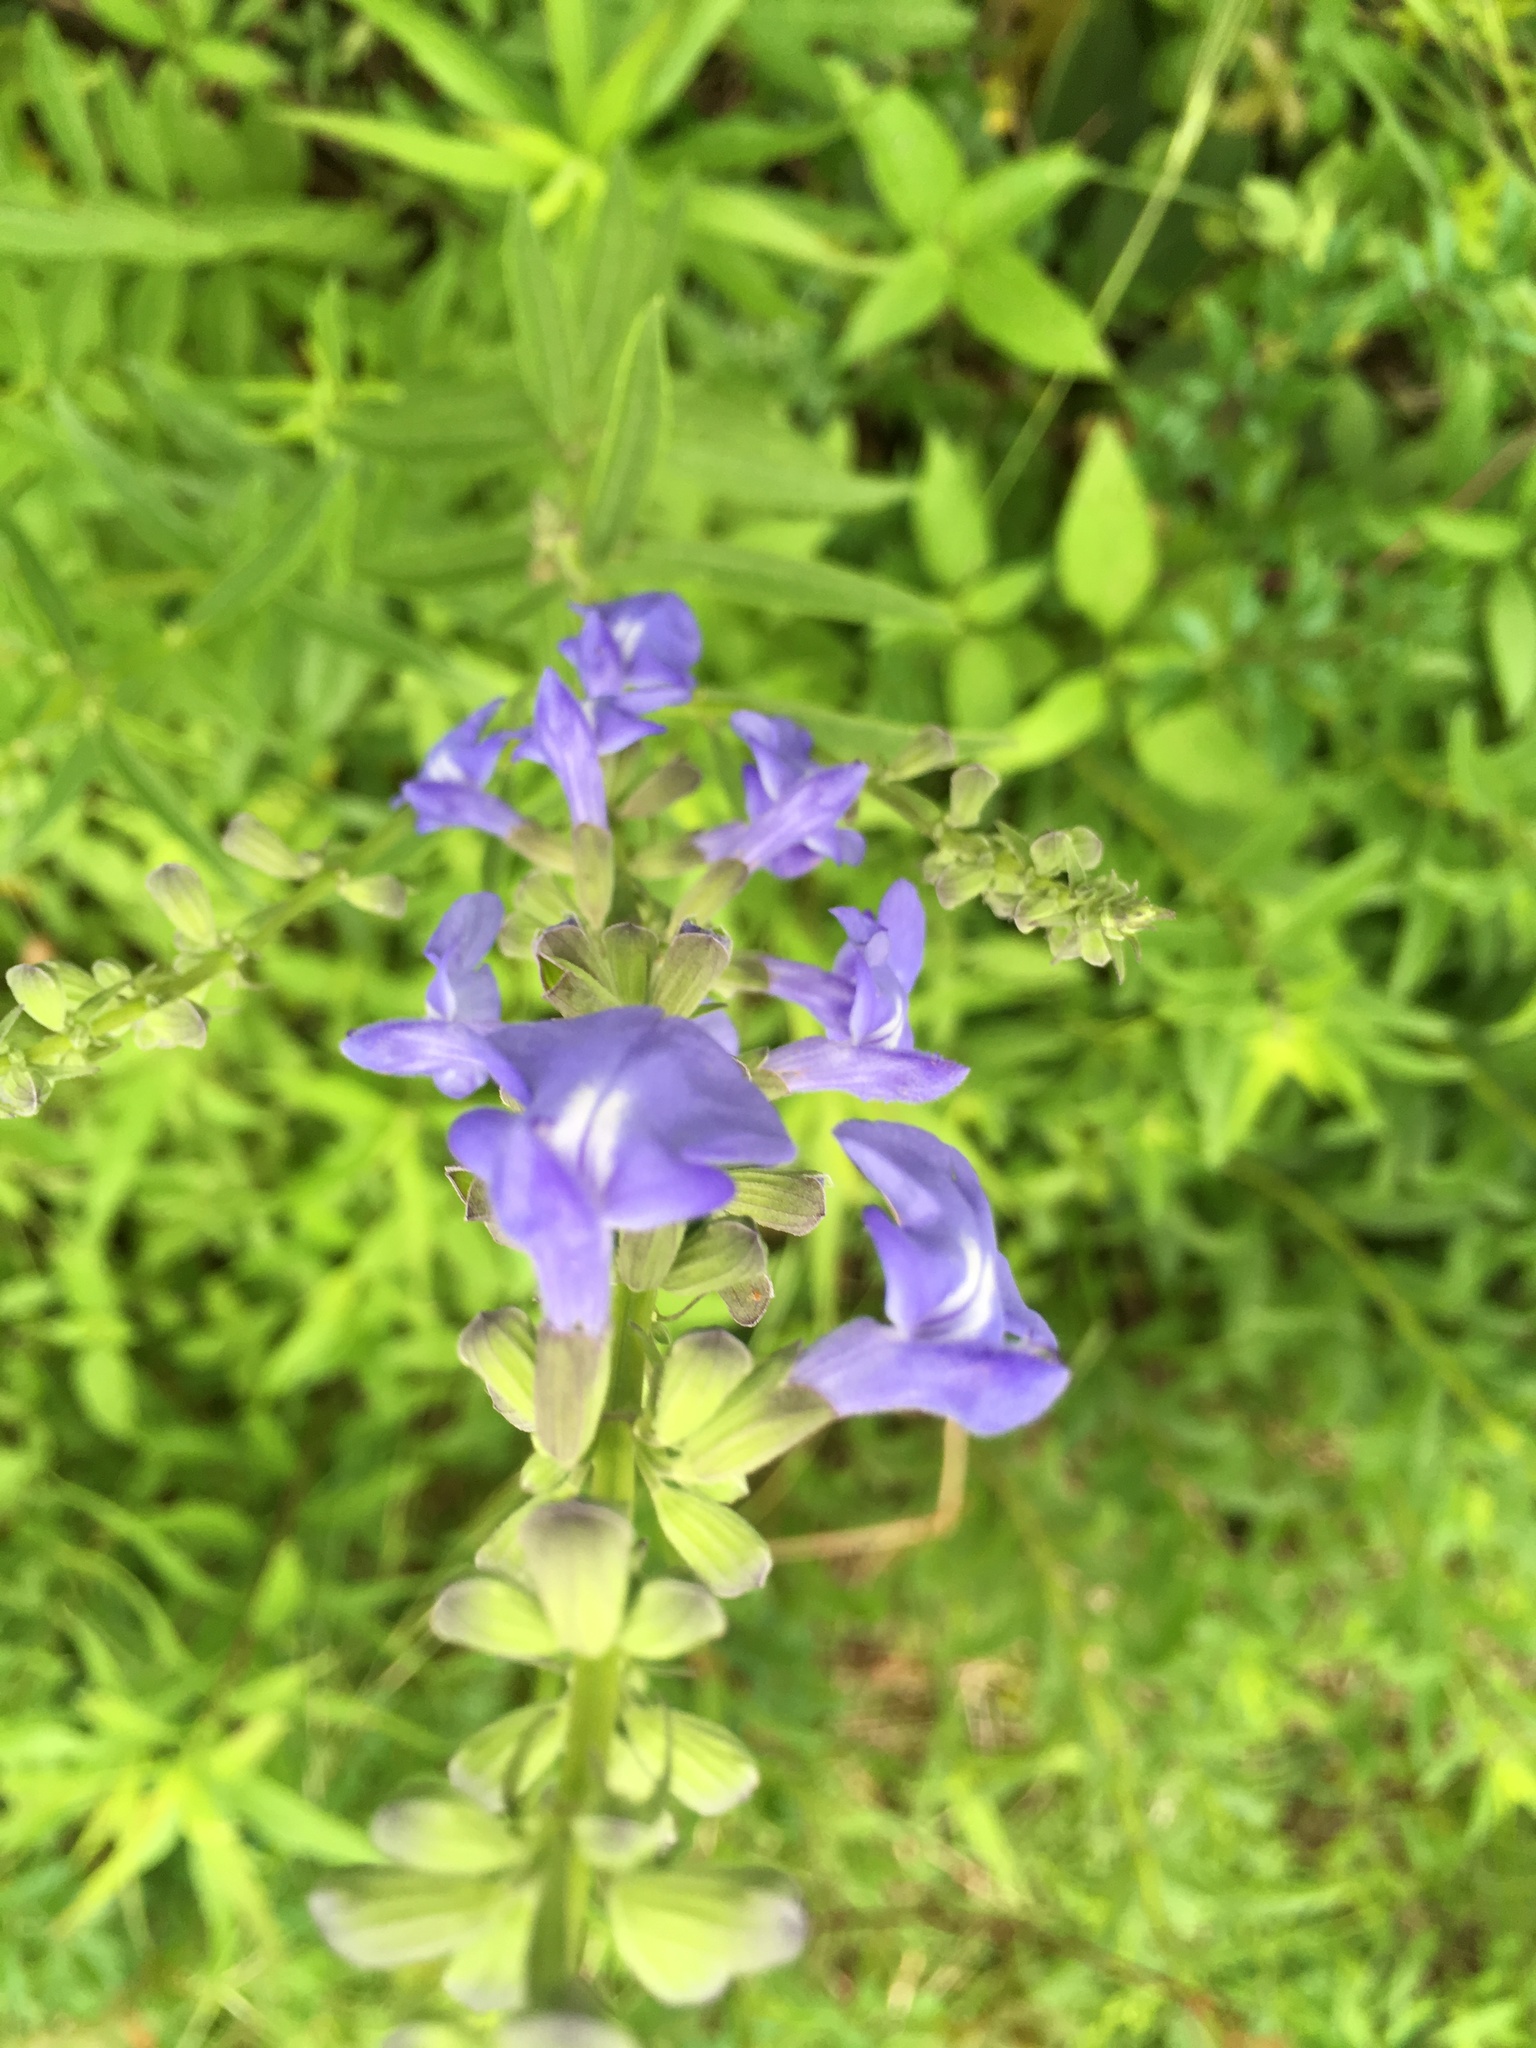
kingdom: Plantae
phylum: Tracheophyta
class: Magnoliopsida
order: Lamiales
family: Lamiaceae
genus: Salvia
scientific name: Salvia azurea
